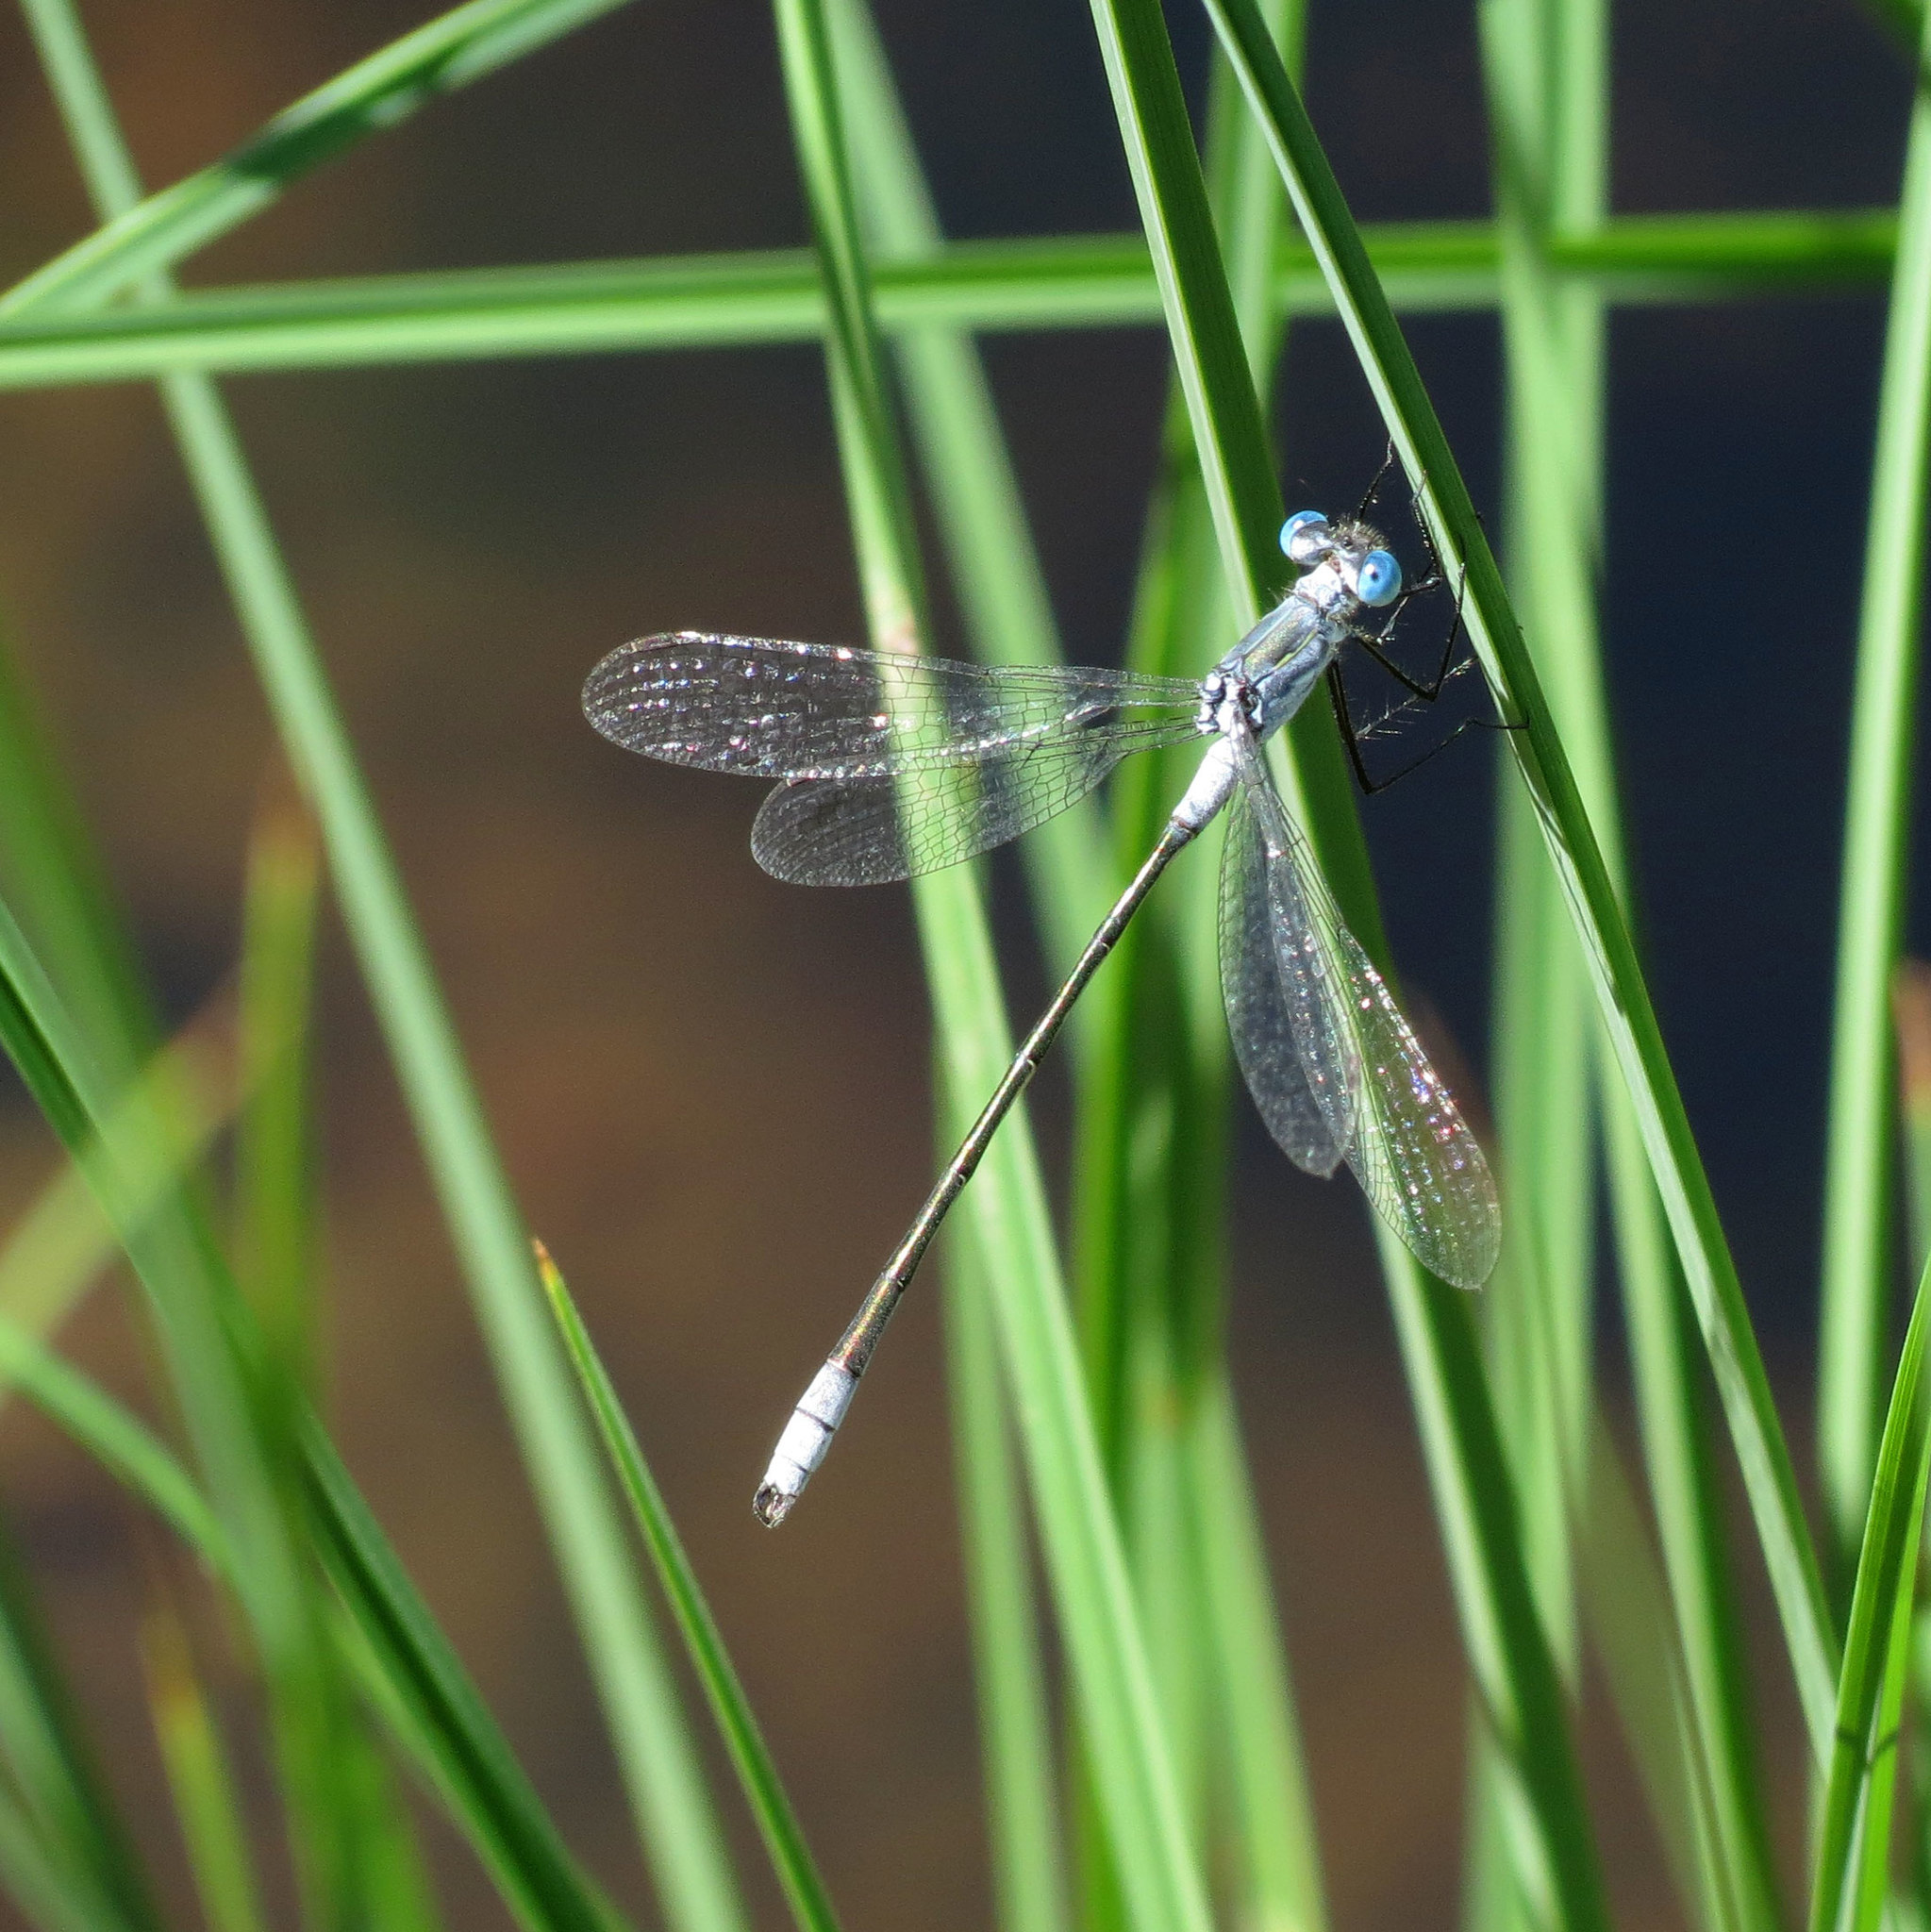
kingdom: Animalia
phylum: Arthropoda
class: Insecta
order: Odonata
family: Lestidae
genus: Lestes
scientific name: Lestes disjunctus
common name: Northern spreadwing
